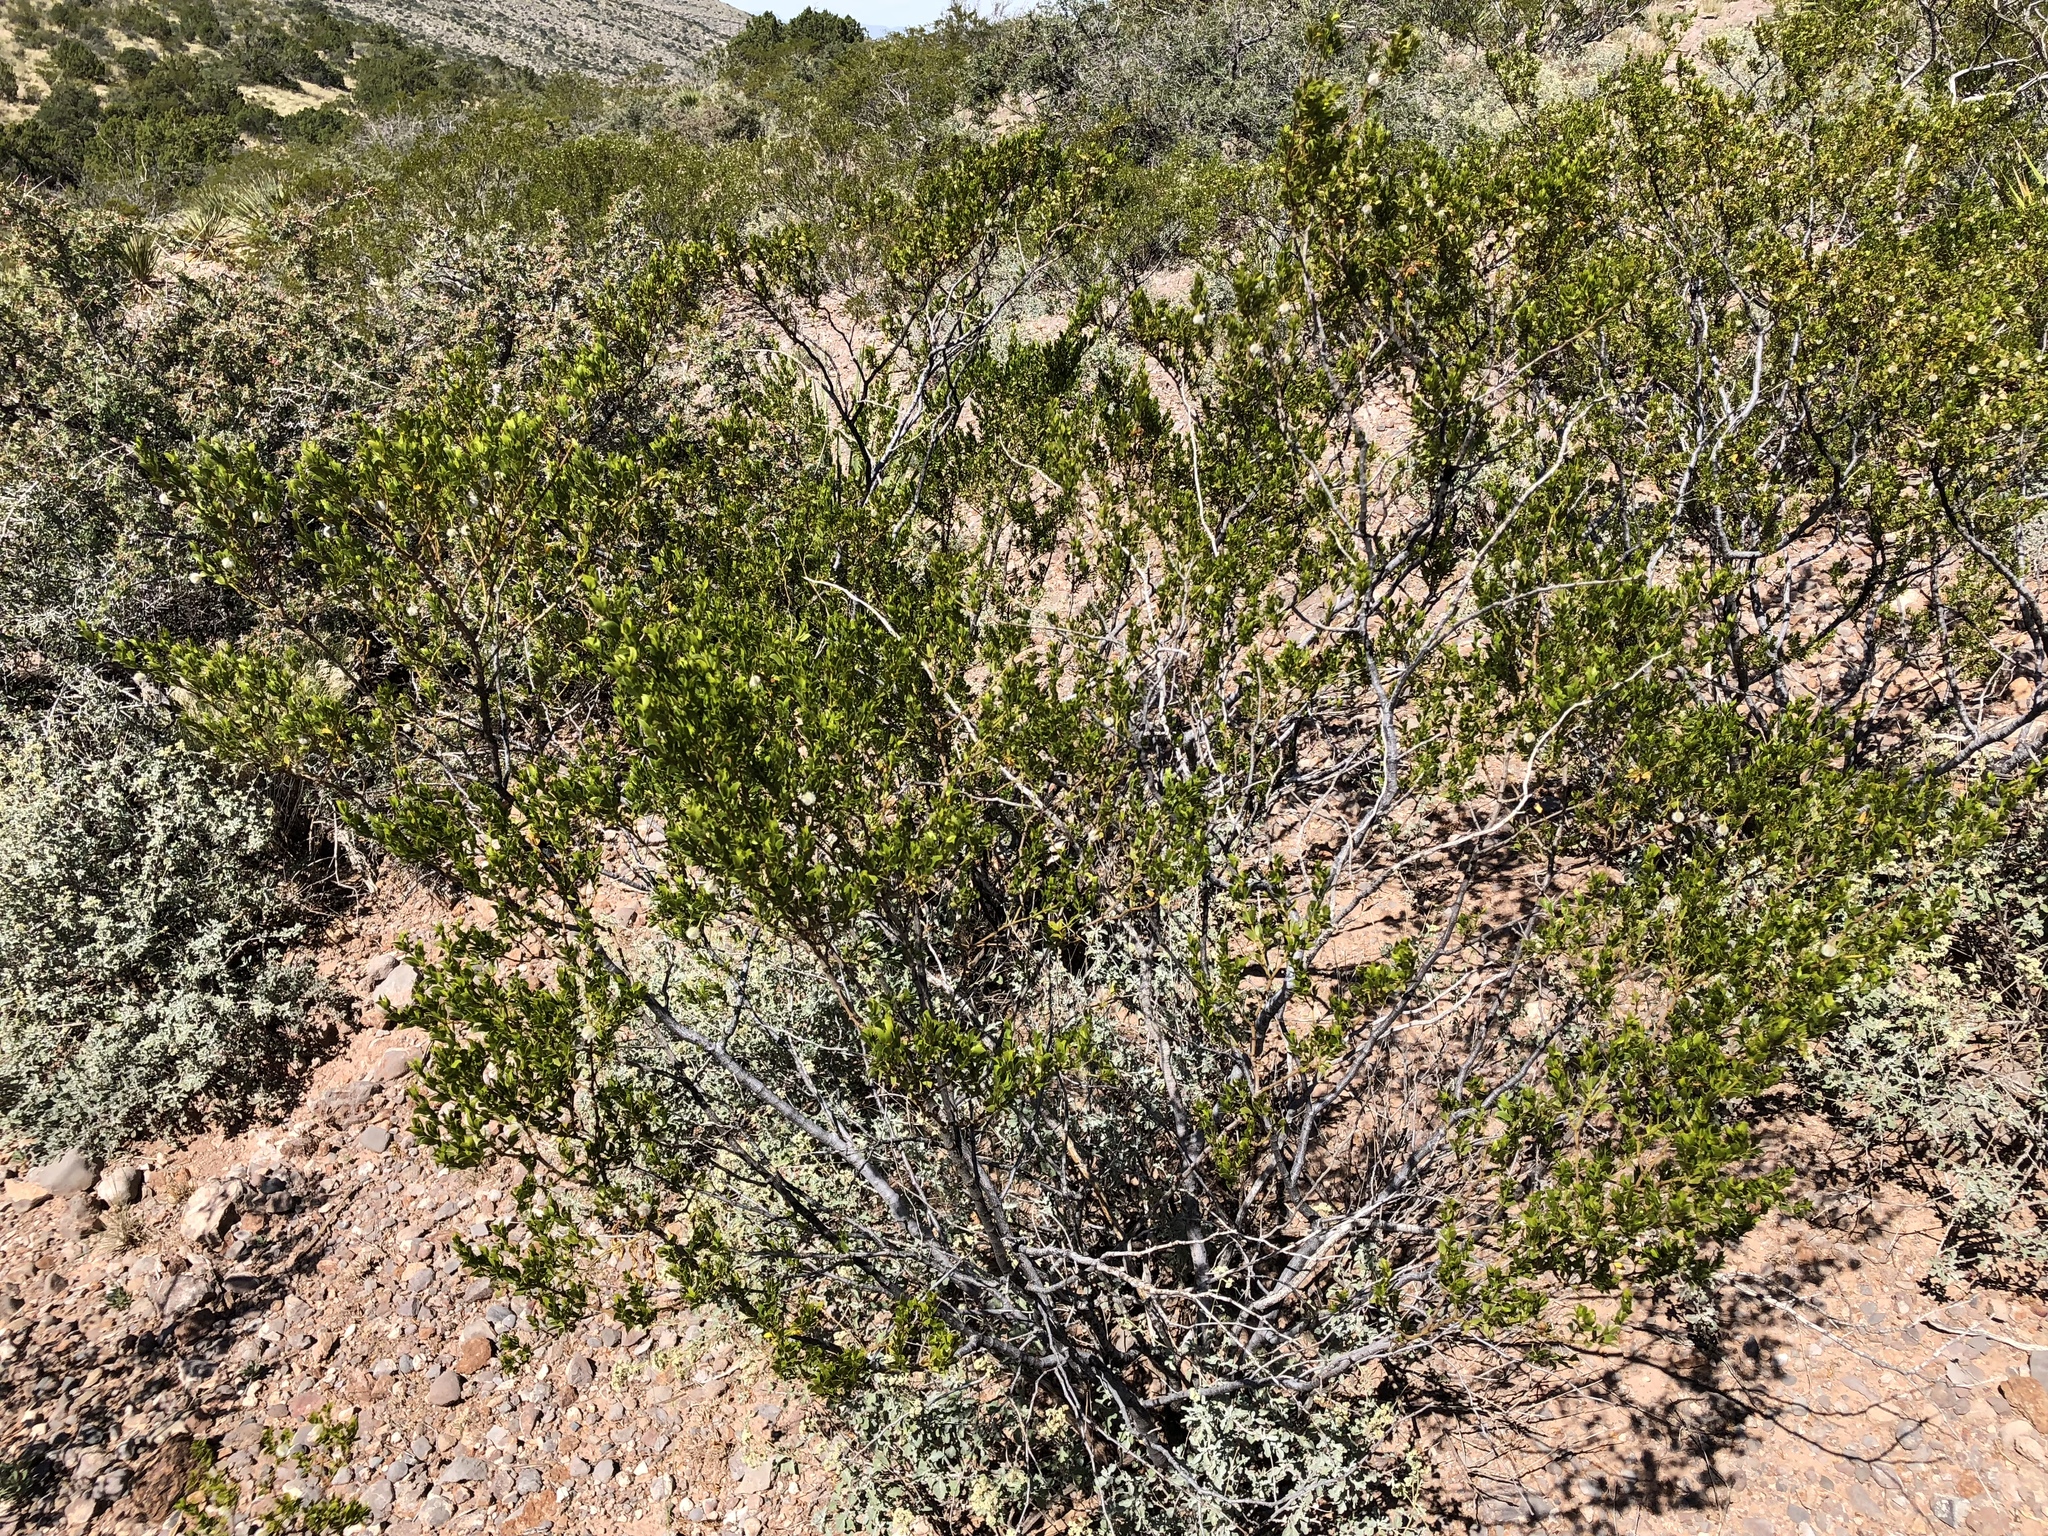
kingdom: Plantae
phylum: Tracheophyta
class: Magnoliopsida
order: Zygophyllales
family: Zygophyllaceae
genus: Larrea
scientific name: Larrea tridentata
